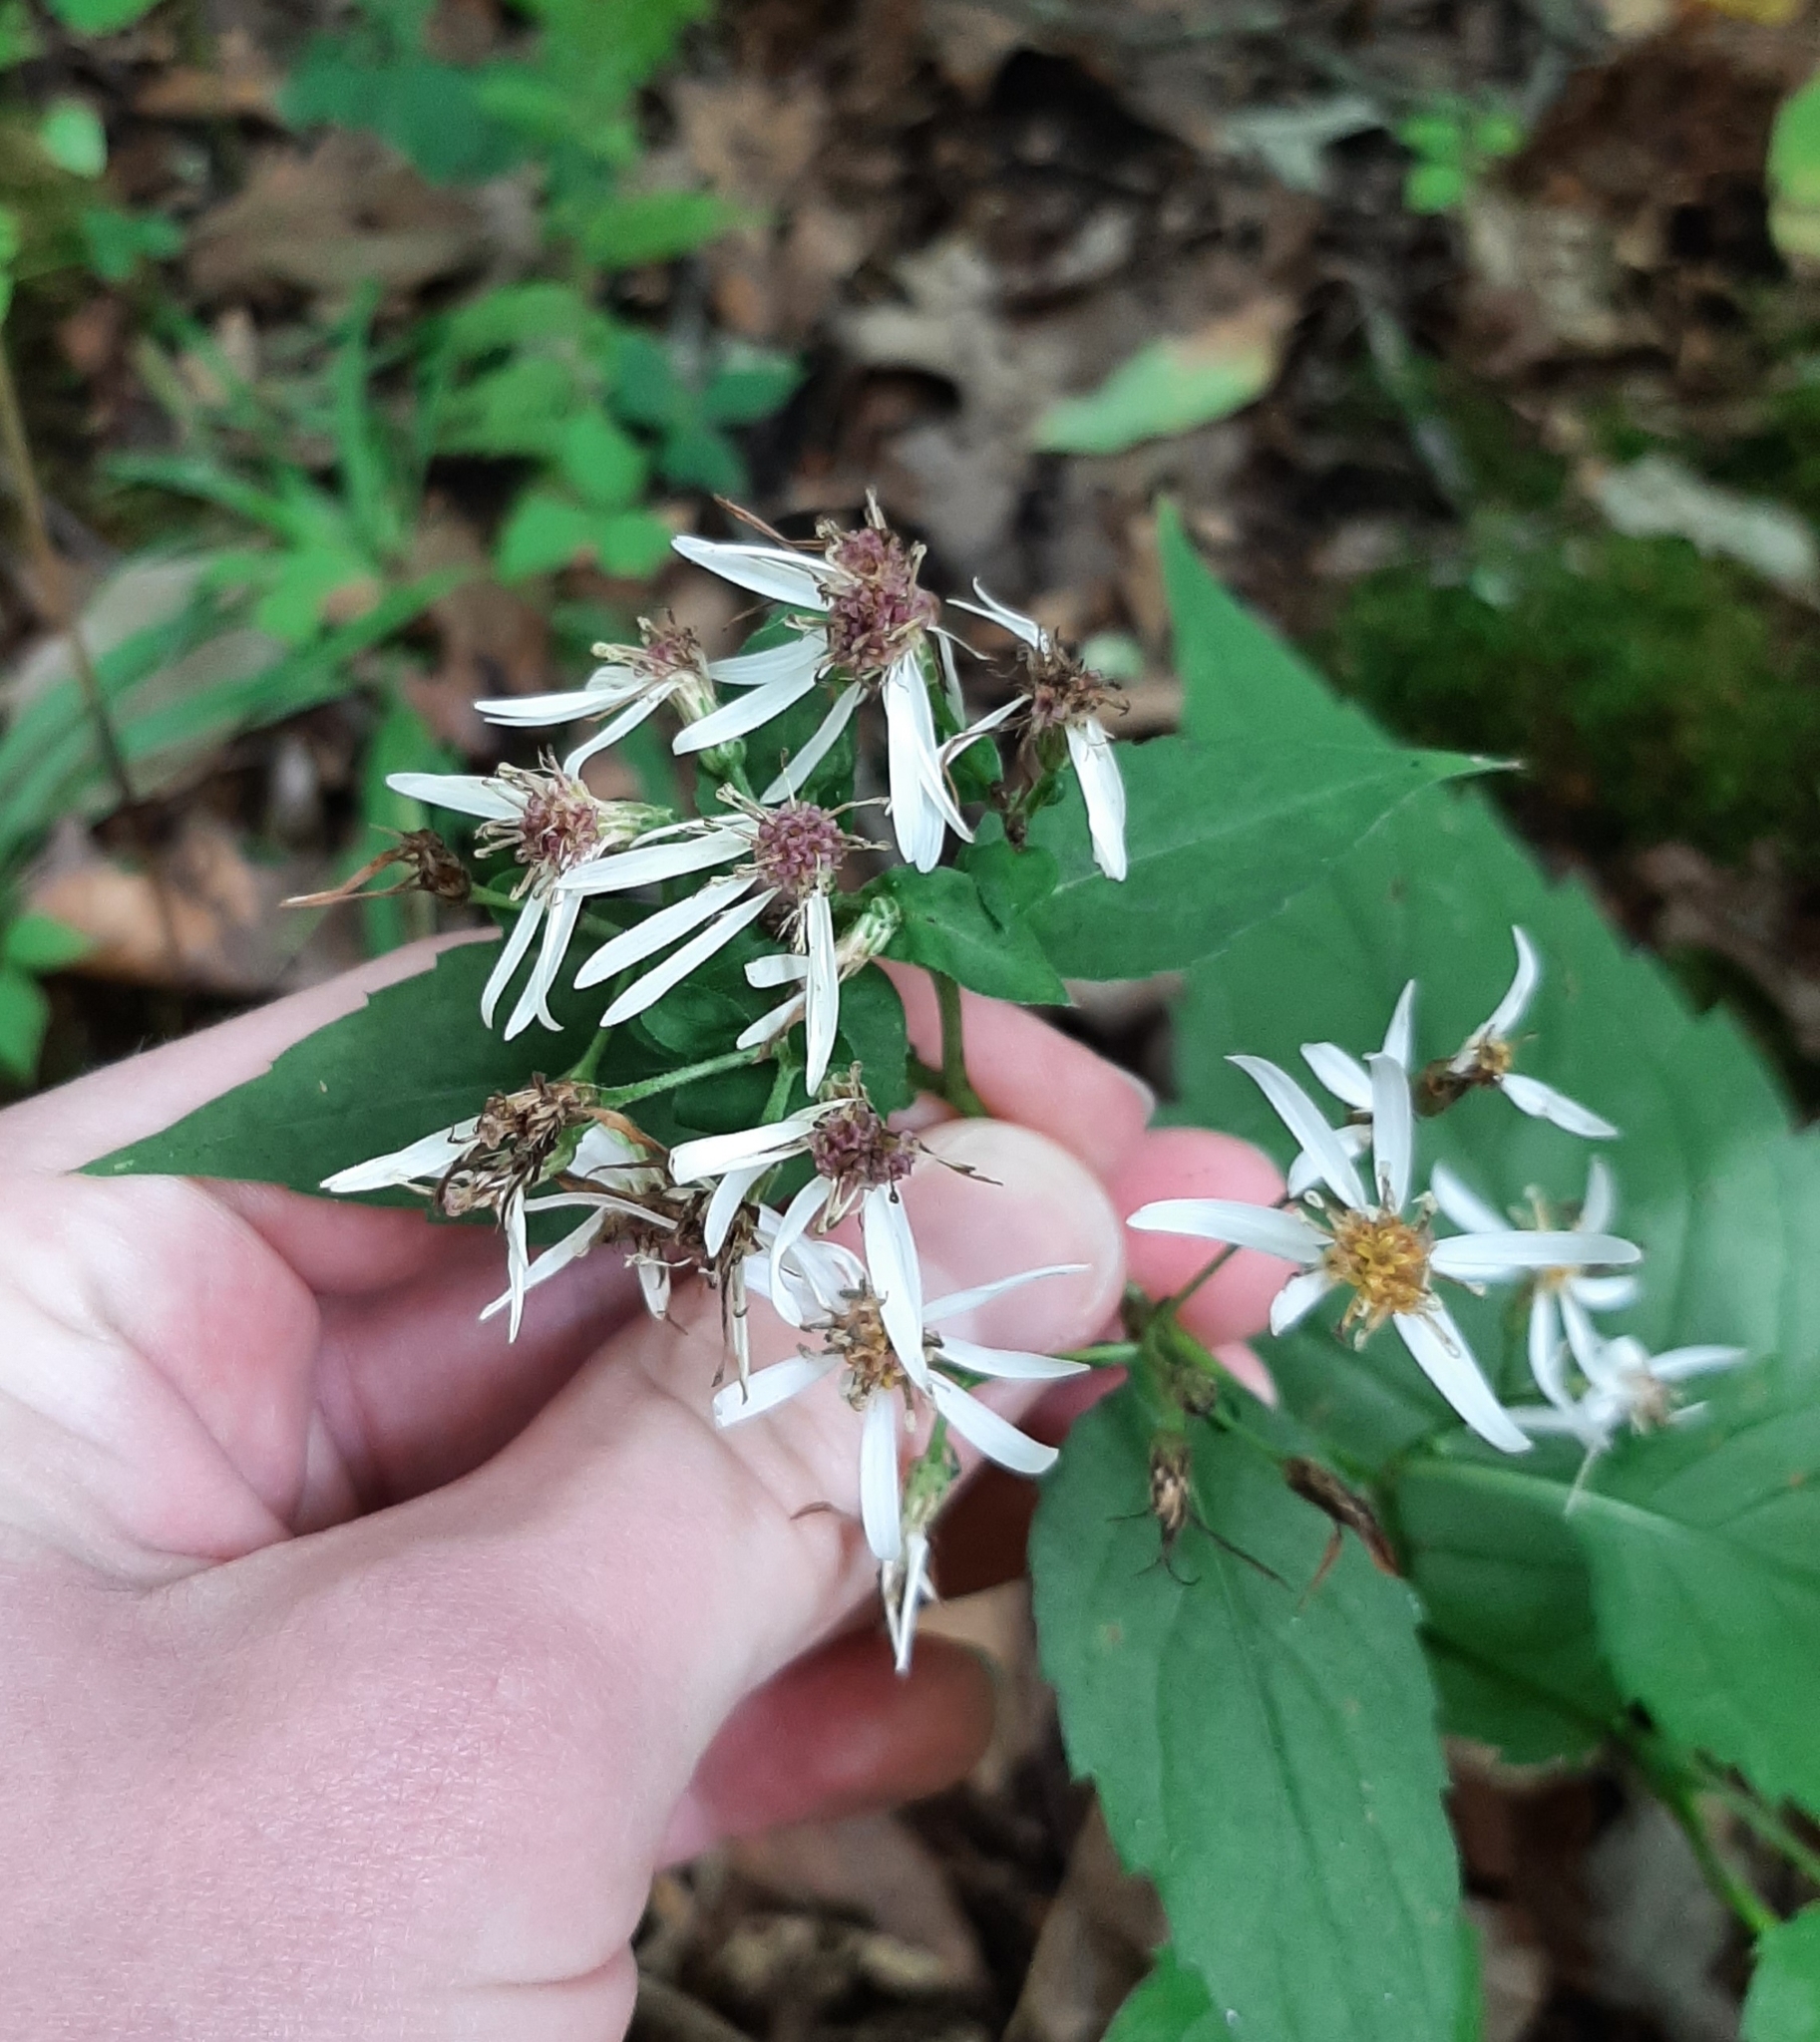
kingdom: Plantae
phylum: Tracheophyta
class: Magnoliopsida
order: Asterales
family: Asteraceae
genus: Eurybia
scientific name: Eurybia divaricata
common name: White wood aster
